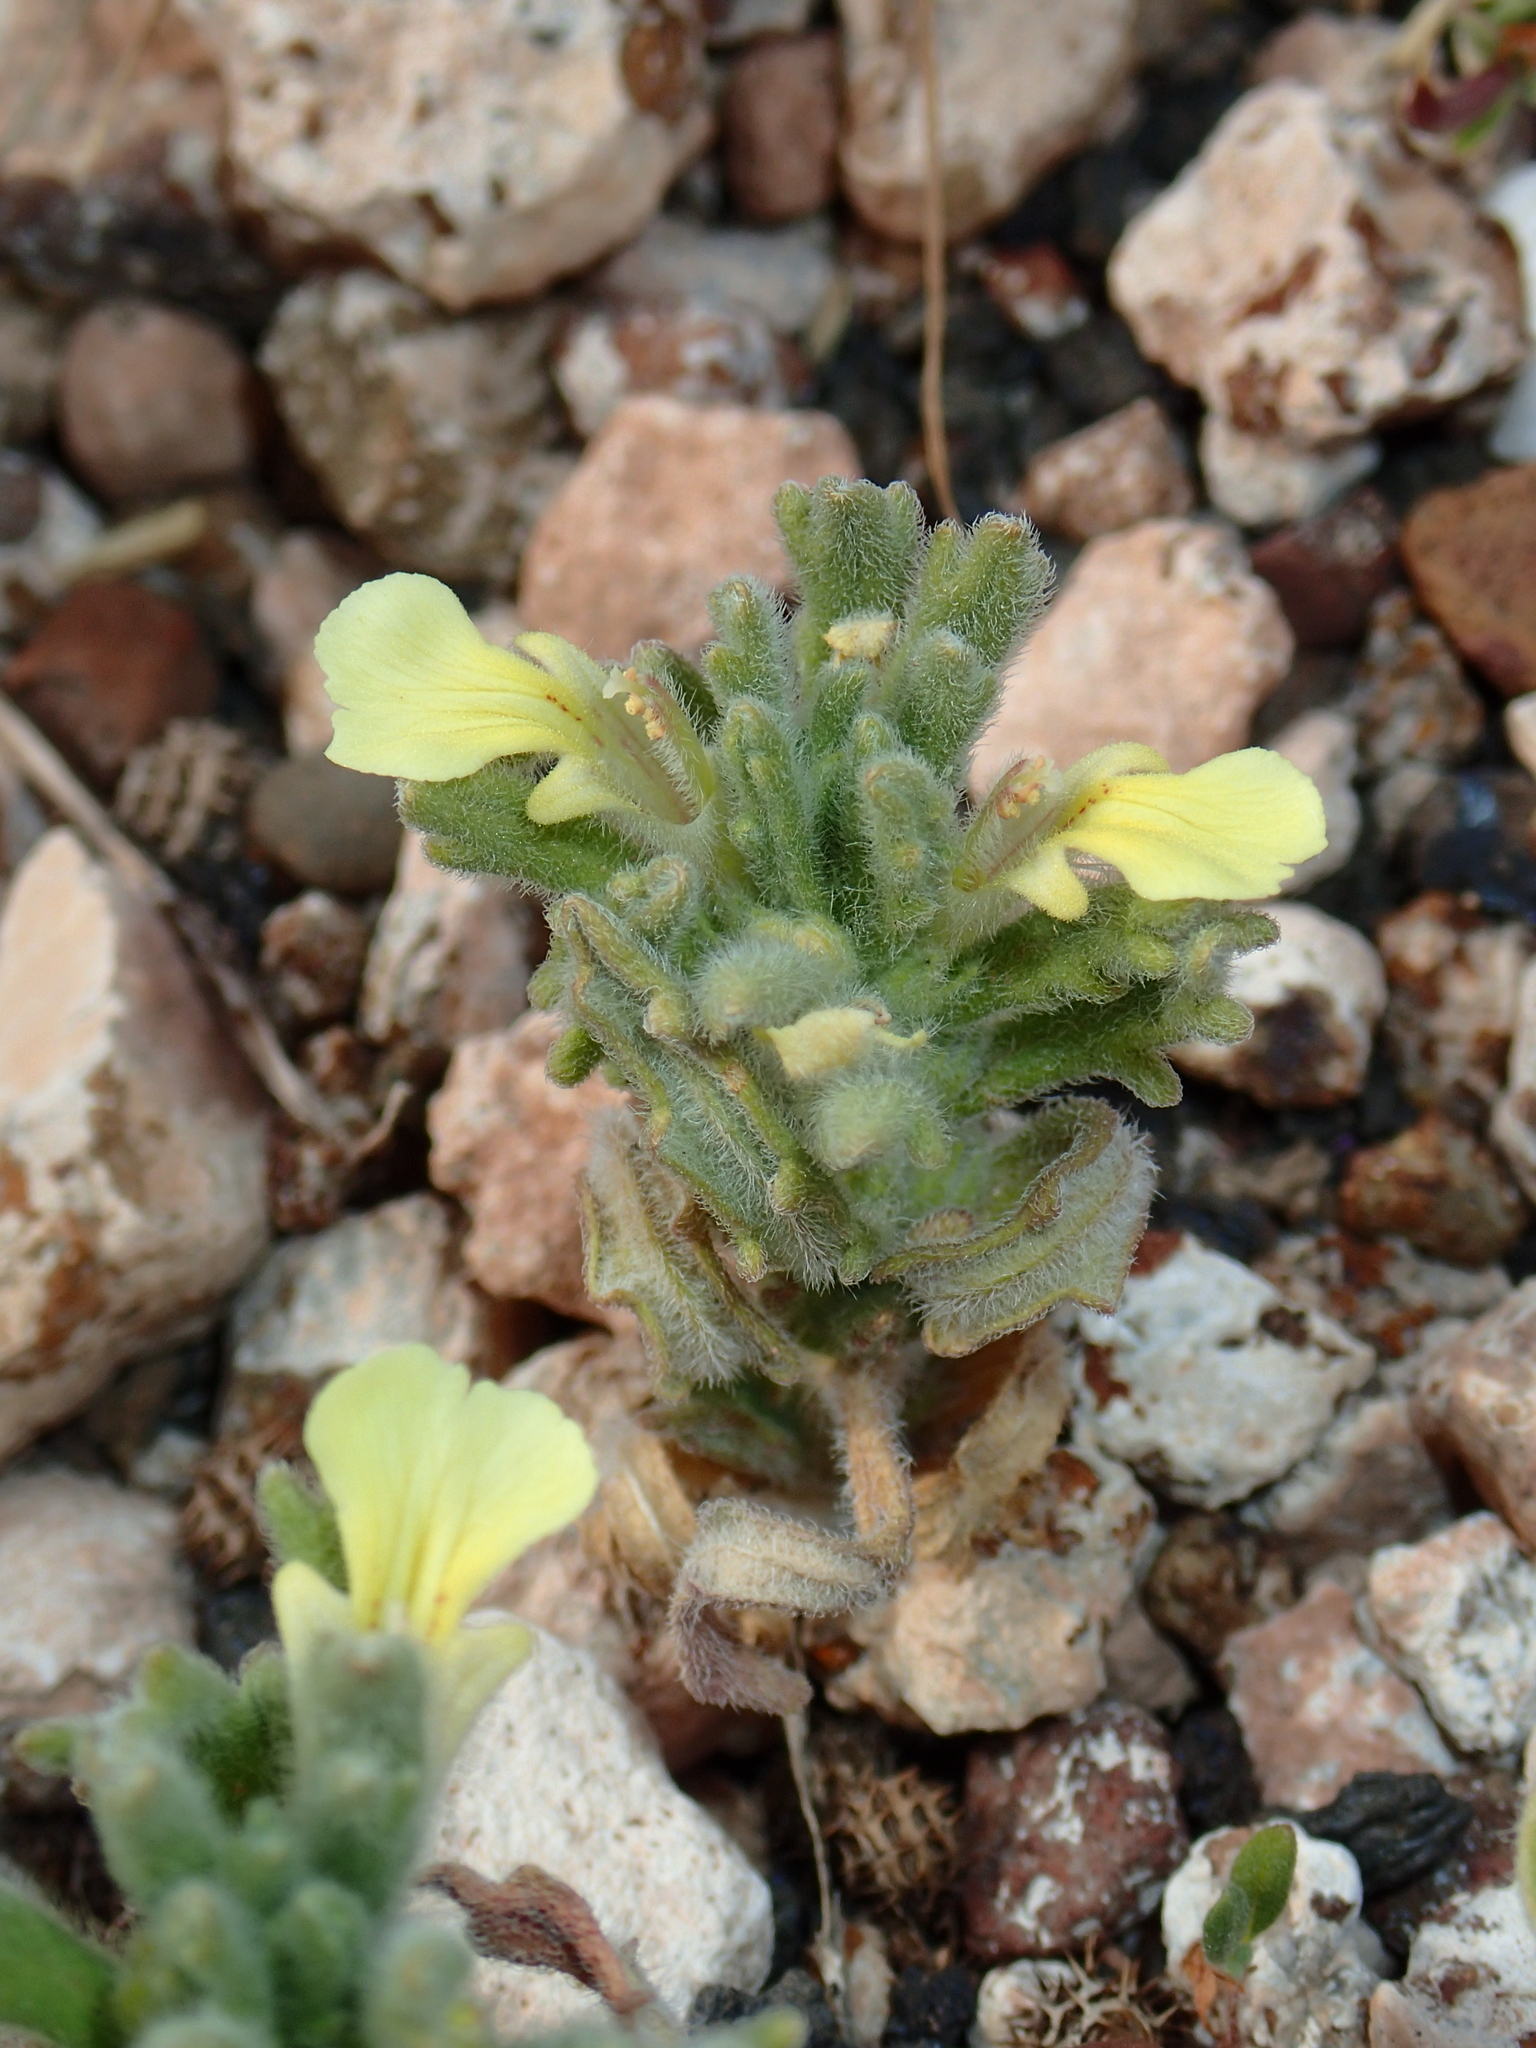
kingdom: Plantae
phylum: Tracheophyta
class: Magnoliopsida
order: Lamiales
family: Lamiaceae
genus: Ajuga
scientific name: Ajuga iva
